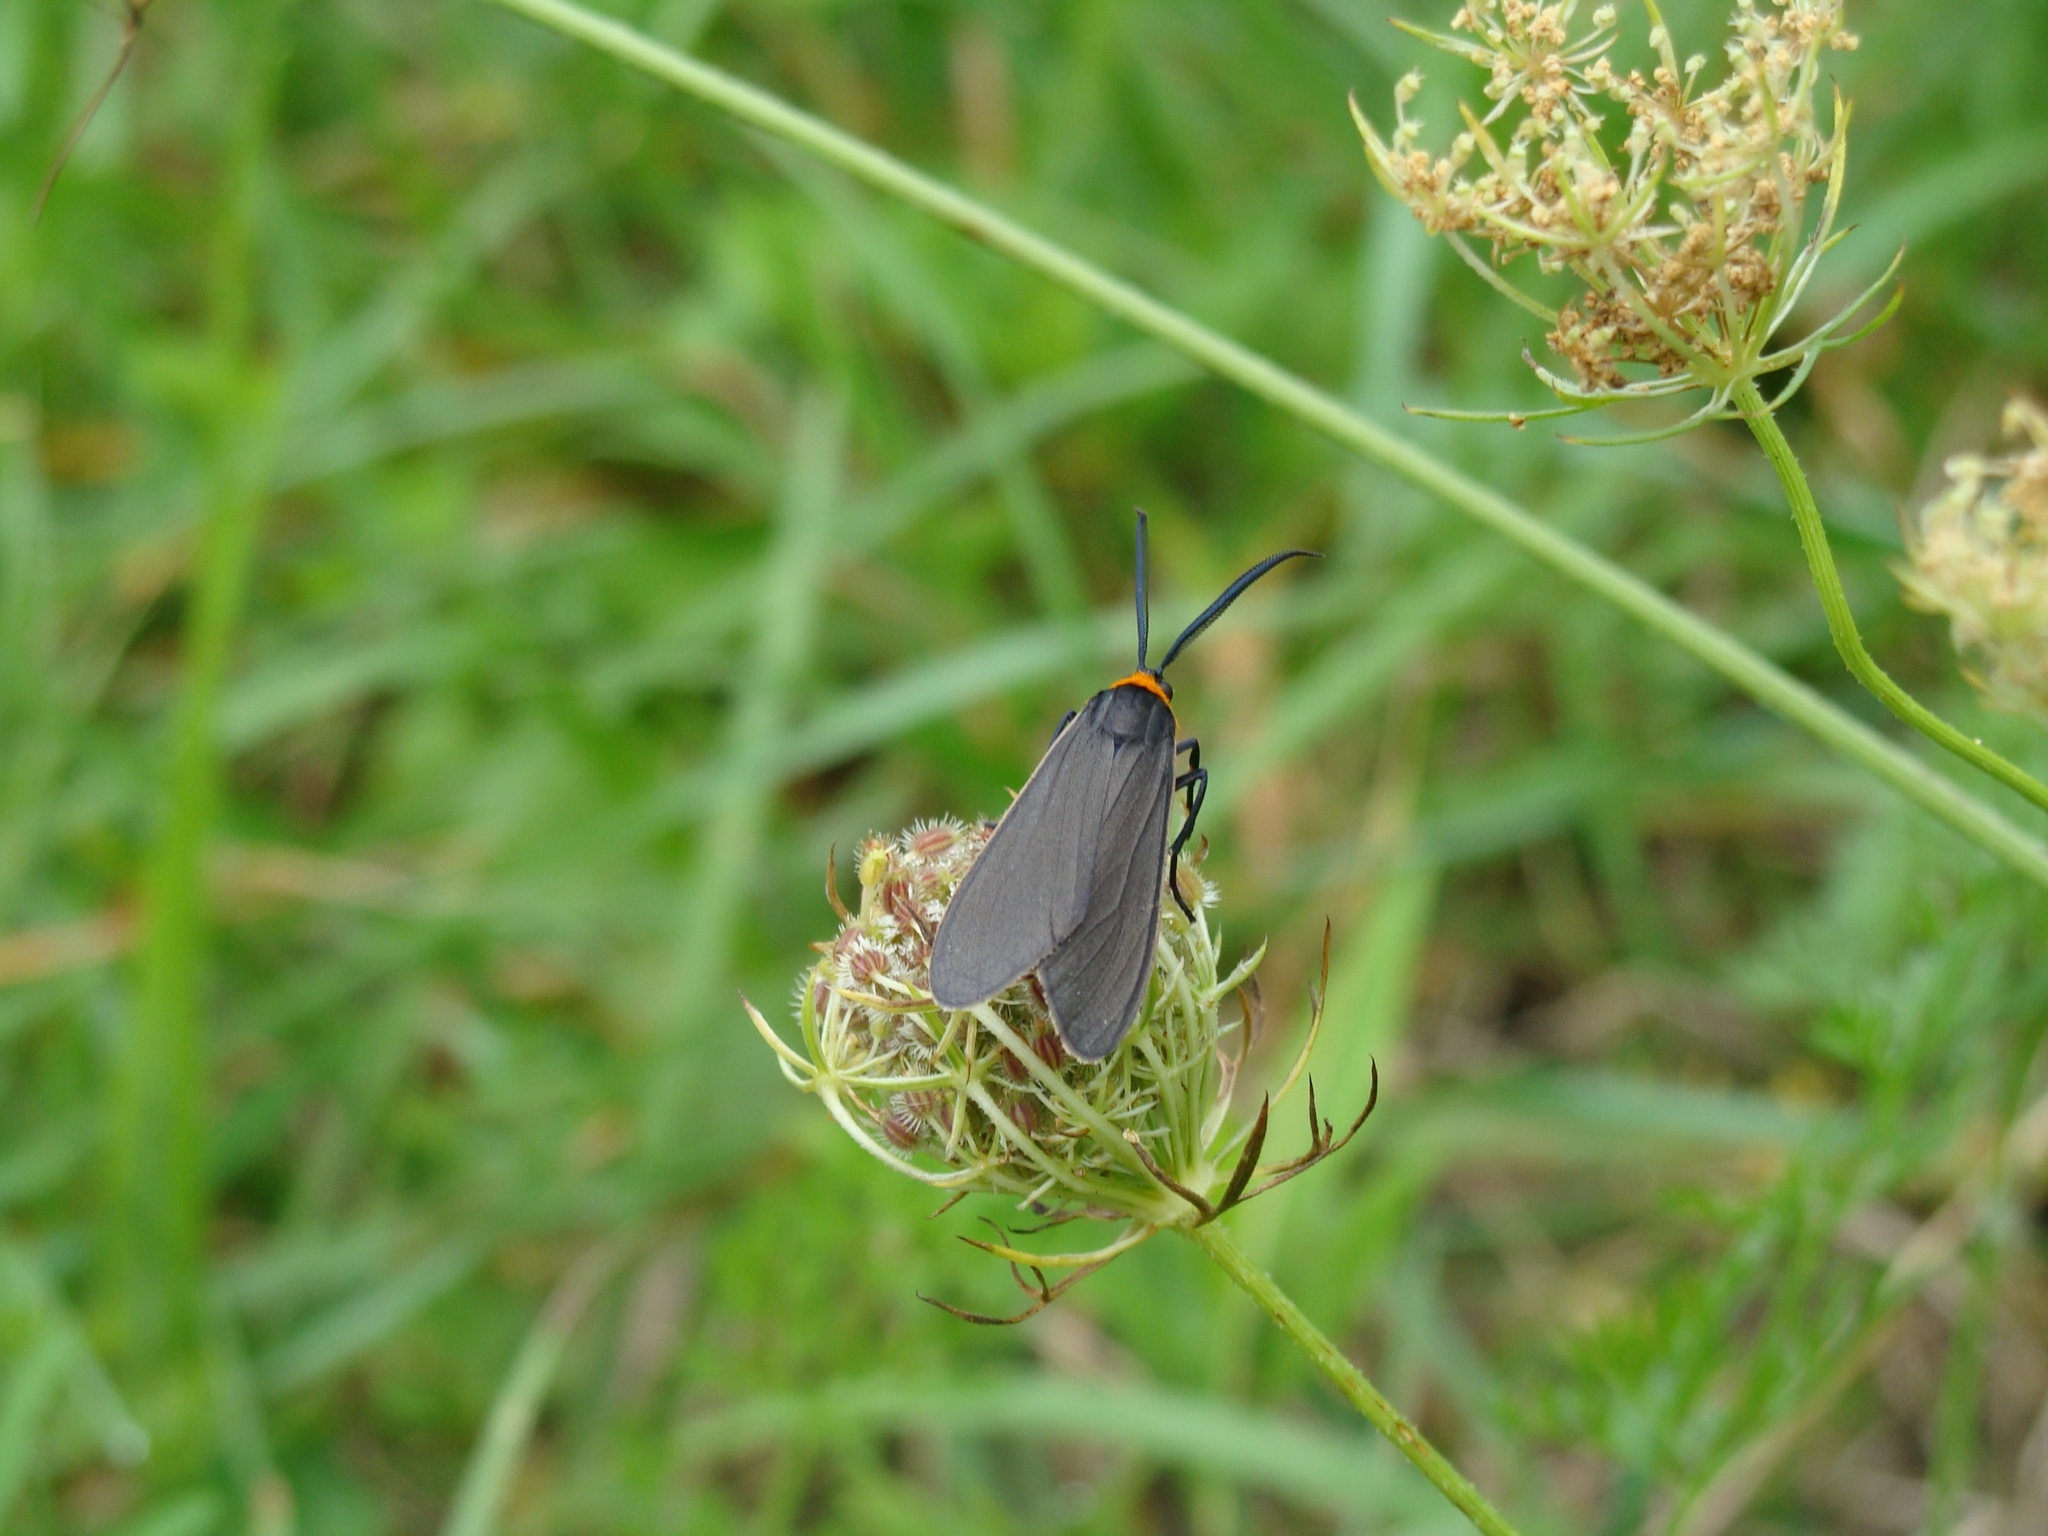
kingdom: Animalia
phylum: Arthropoda
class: Insecta
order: Lepidoptera
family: Erebidae
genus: Cisseps
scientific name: Cisseps fulvicollis
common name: Yellow-collared scape moth
